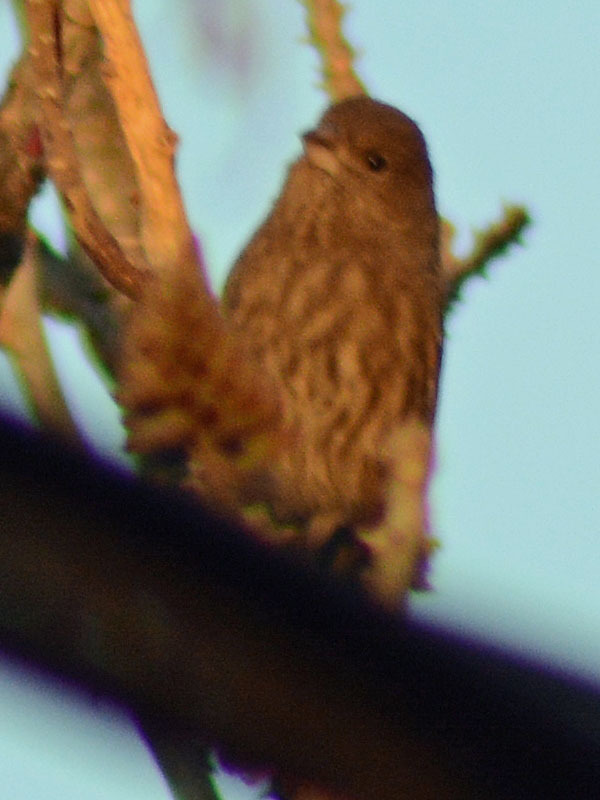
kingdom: Animalia
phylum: Chordata
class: Aves
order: Passeriformes
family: Fringillidae
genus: Haemorhous
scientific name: Haemorhous mexicanus
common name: House finch
